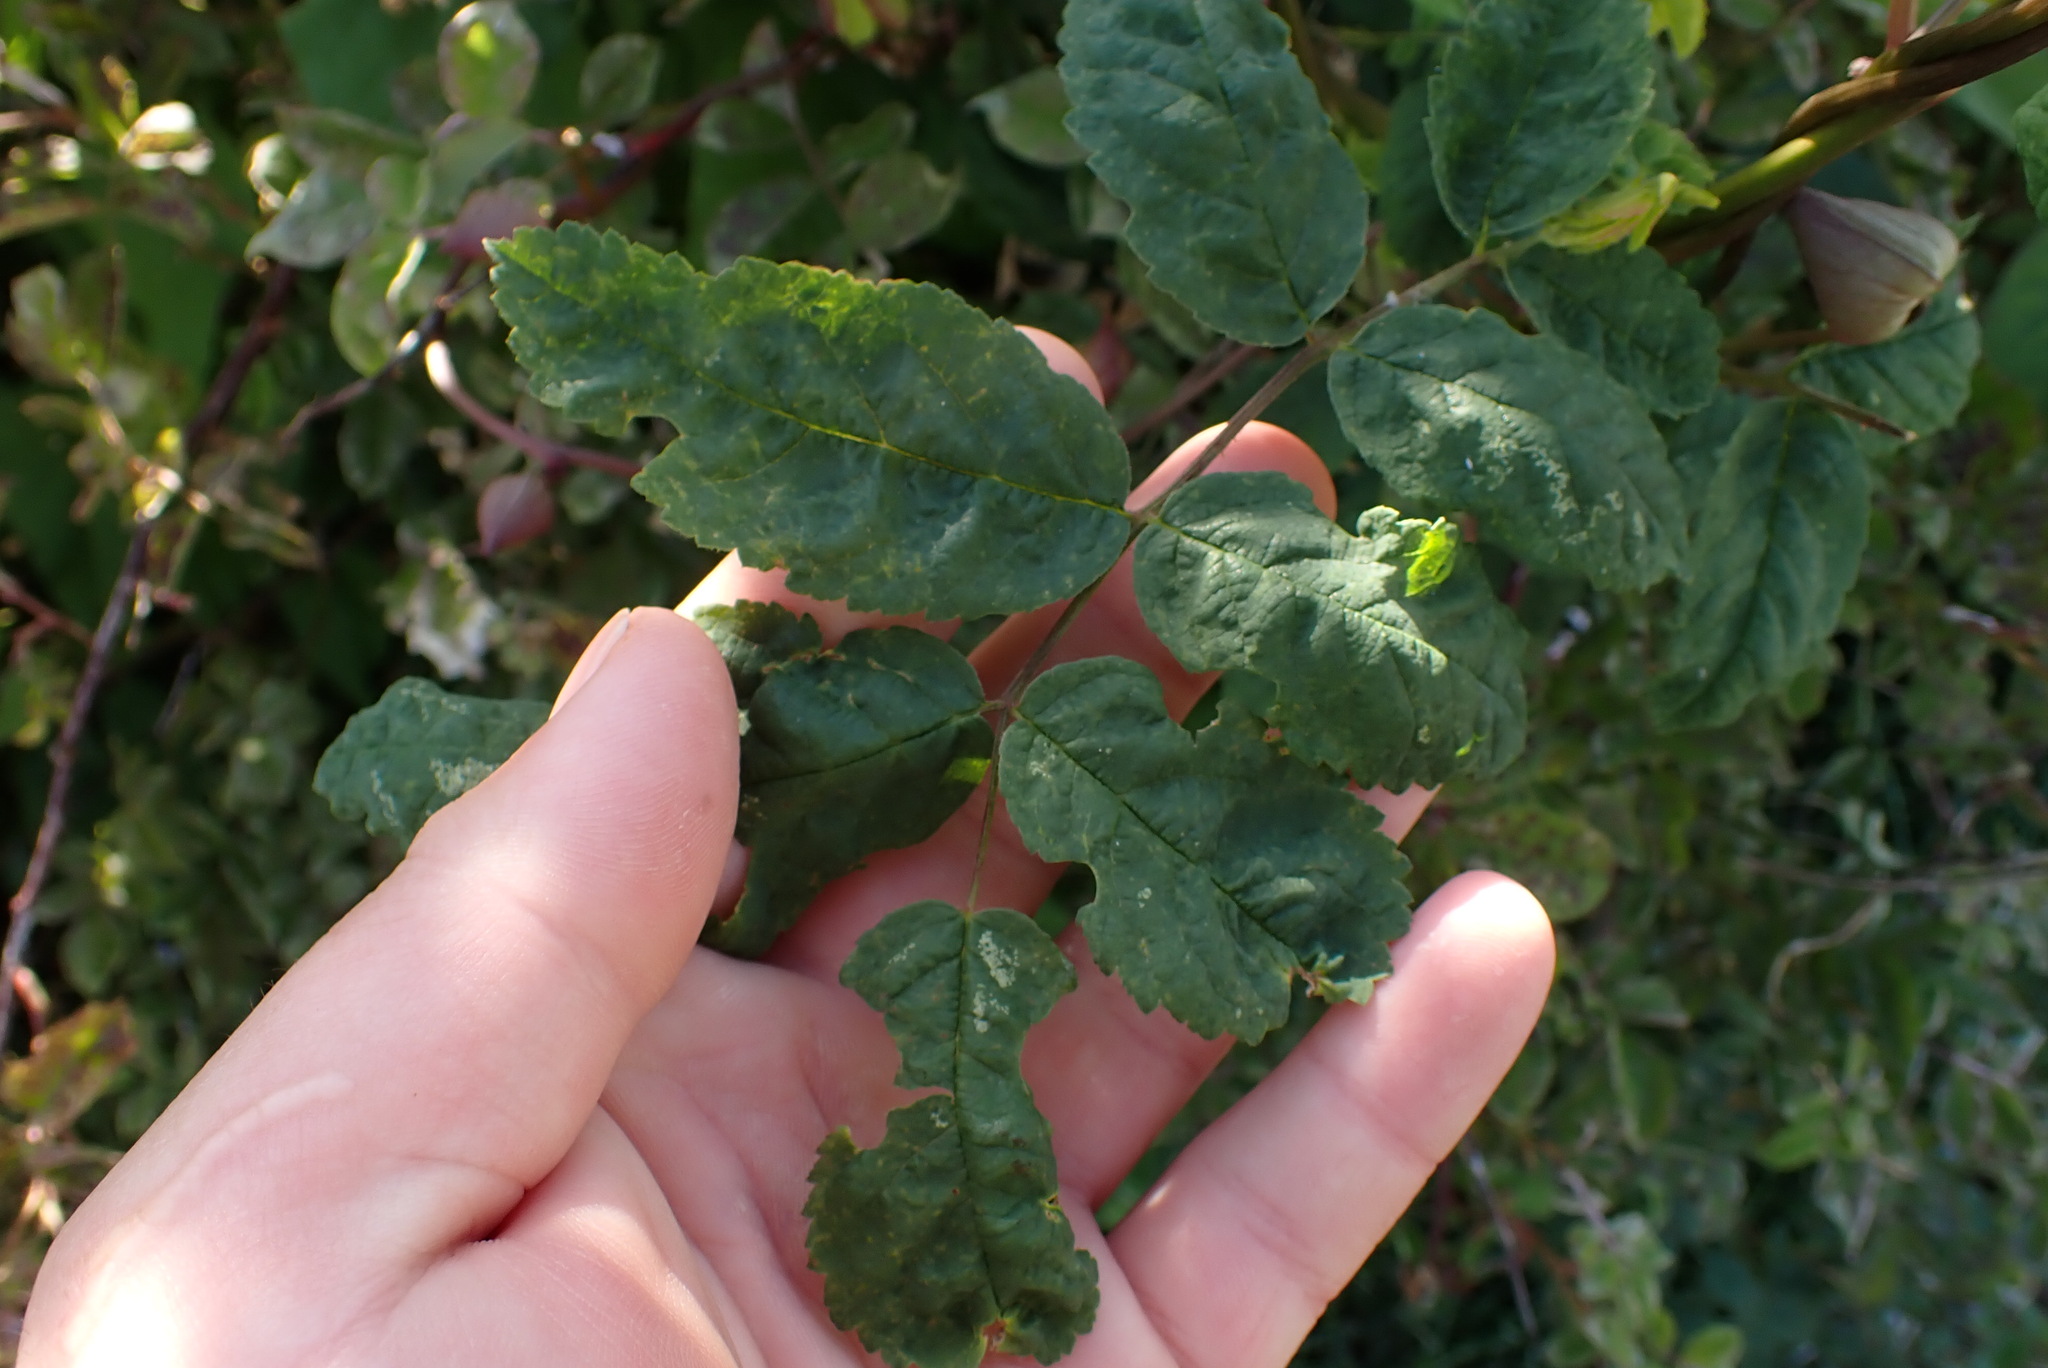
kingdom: Plantae
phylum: Tracheophyta
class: Magnoliopsida
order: Rosales
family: Rosaceae
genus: Rosa
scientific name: Rosa multiflora
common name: Multiflora rose
